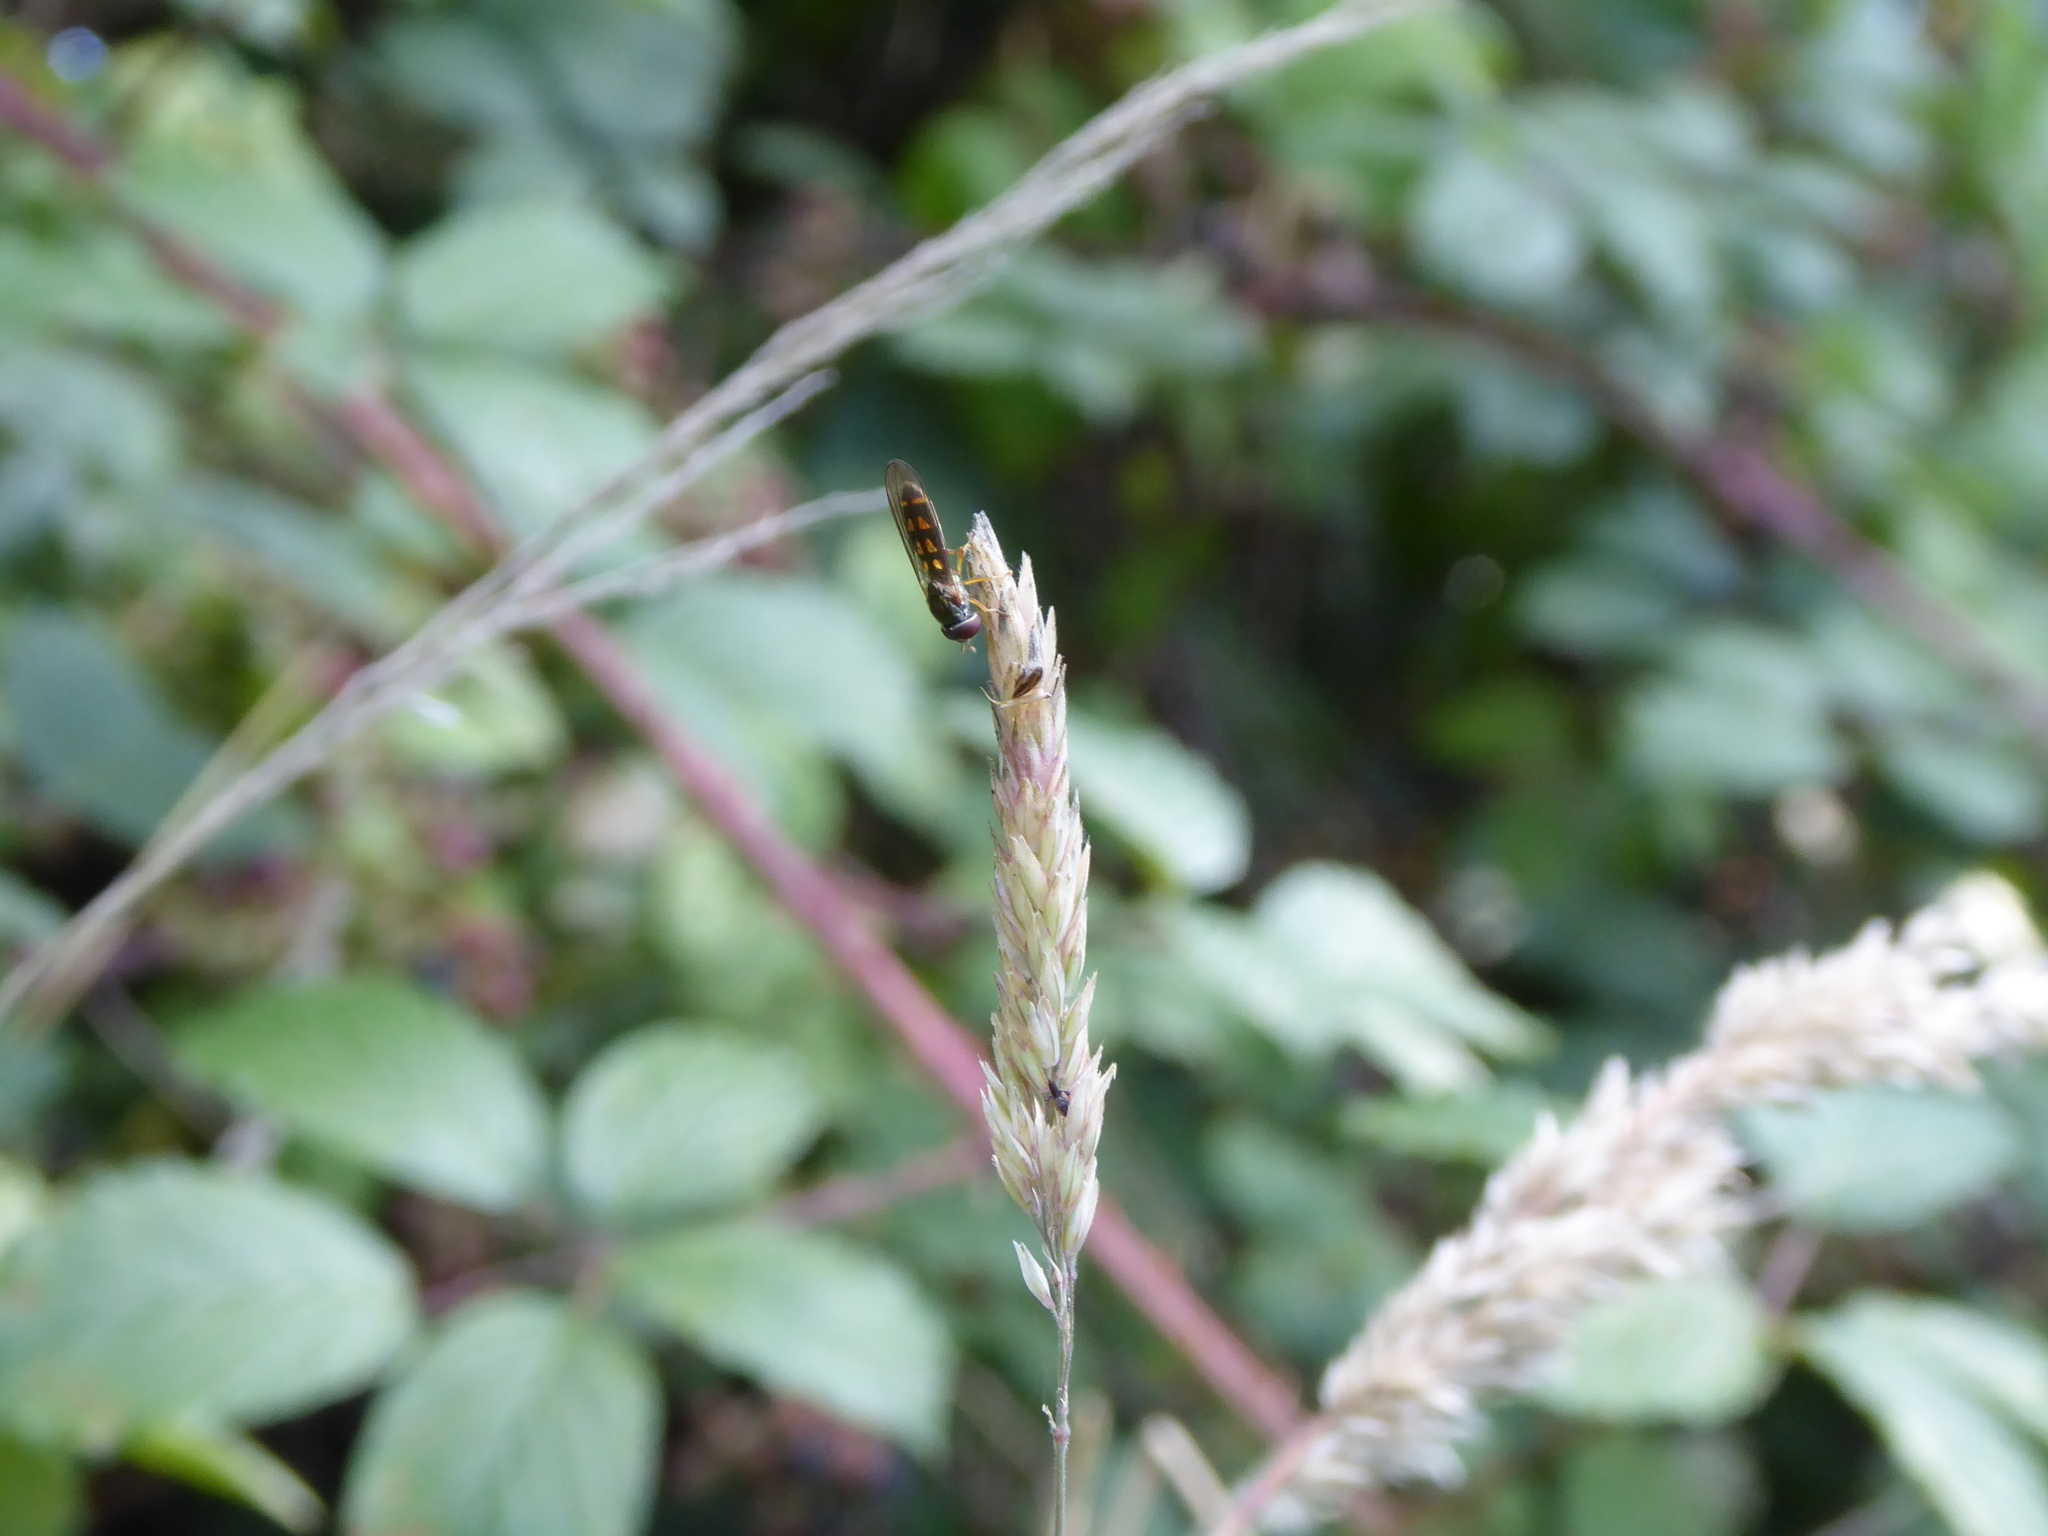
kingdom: Animalia
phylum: Arthropoda
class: Insecta
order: Diptera
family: Syrphidae
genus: Melanostoma
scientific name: Melanostoma
